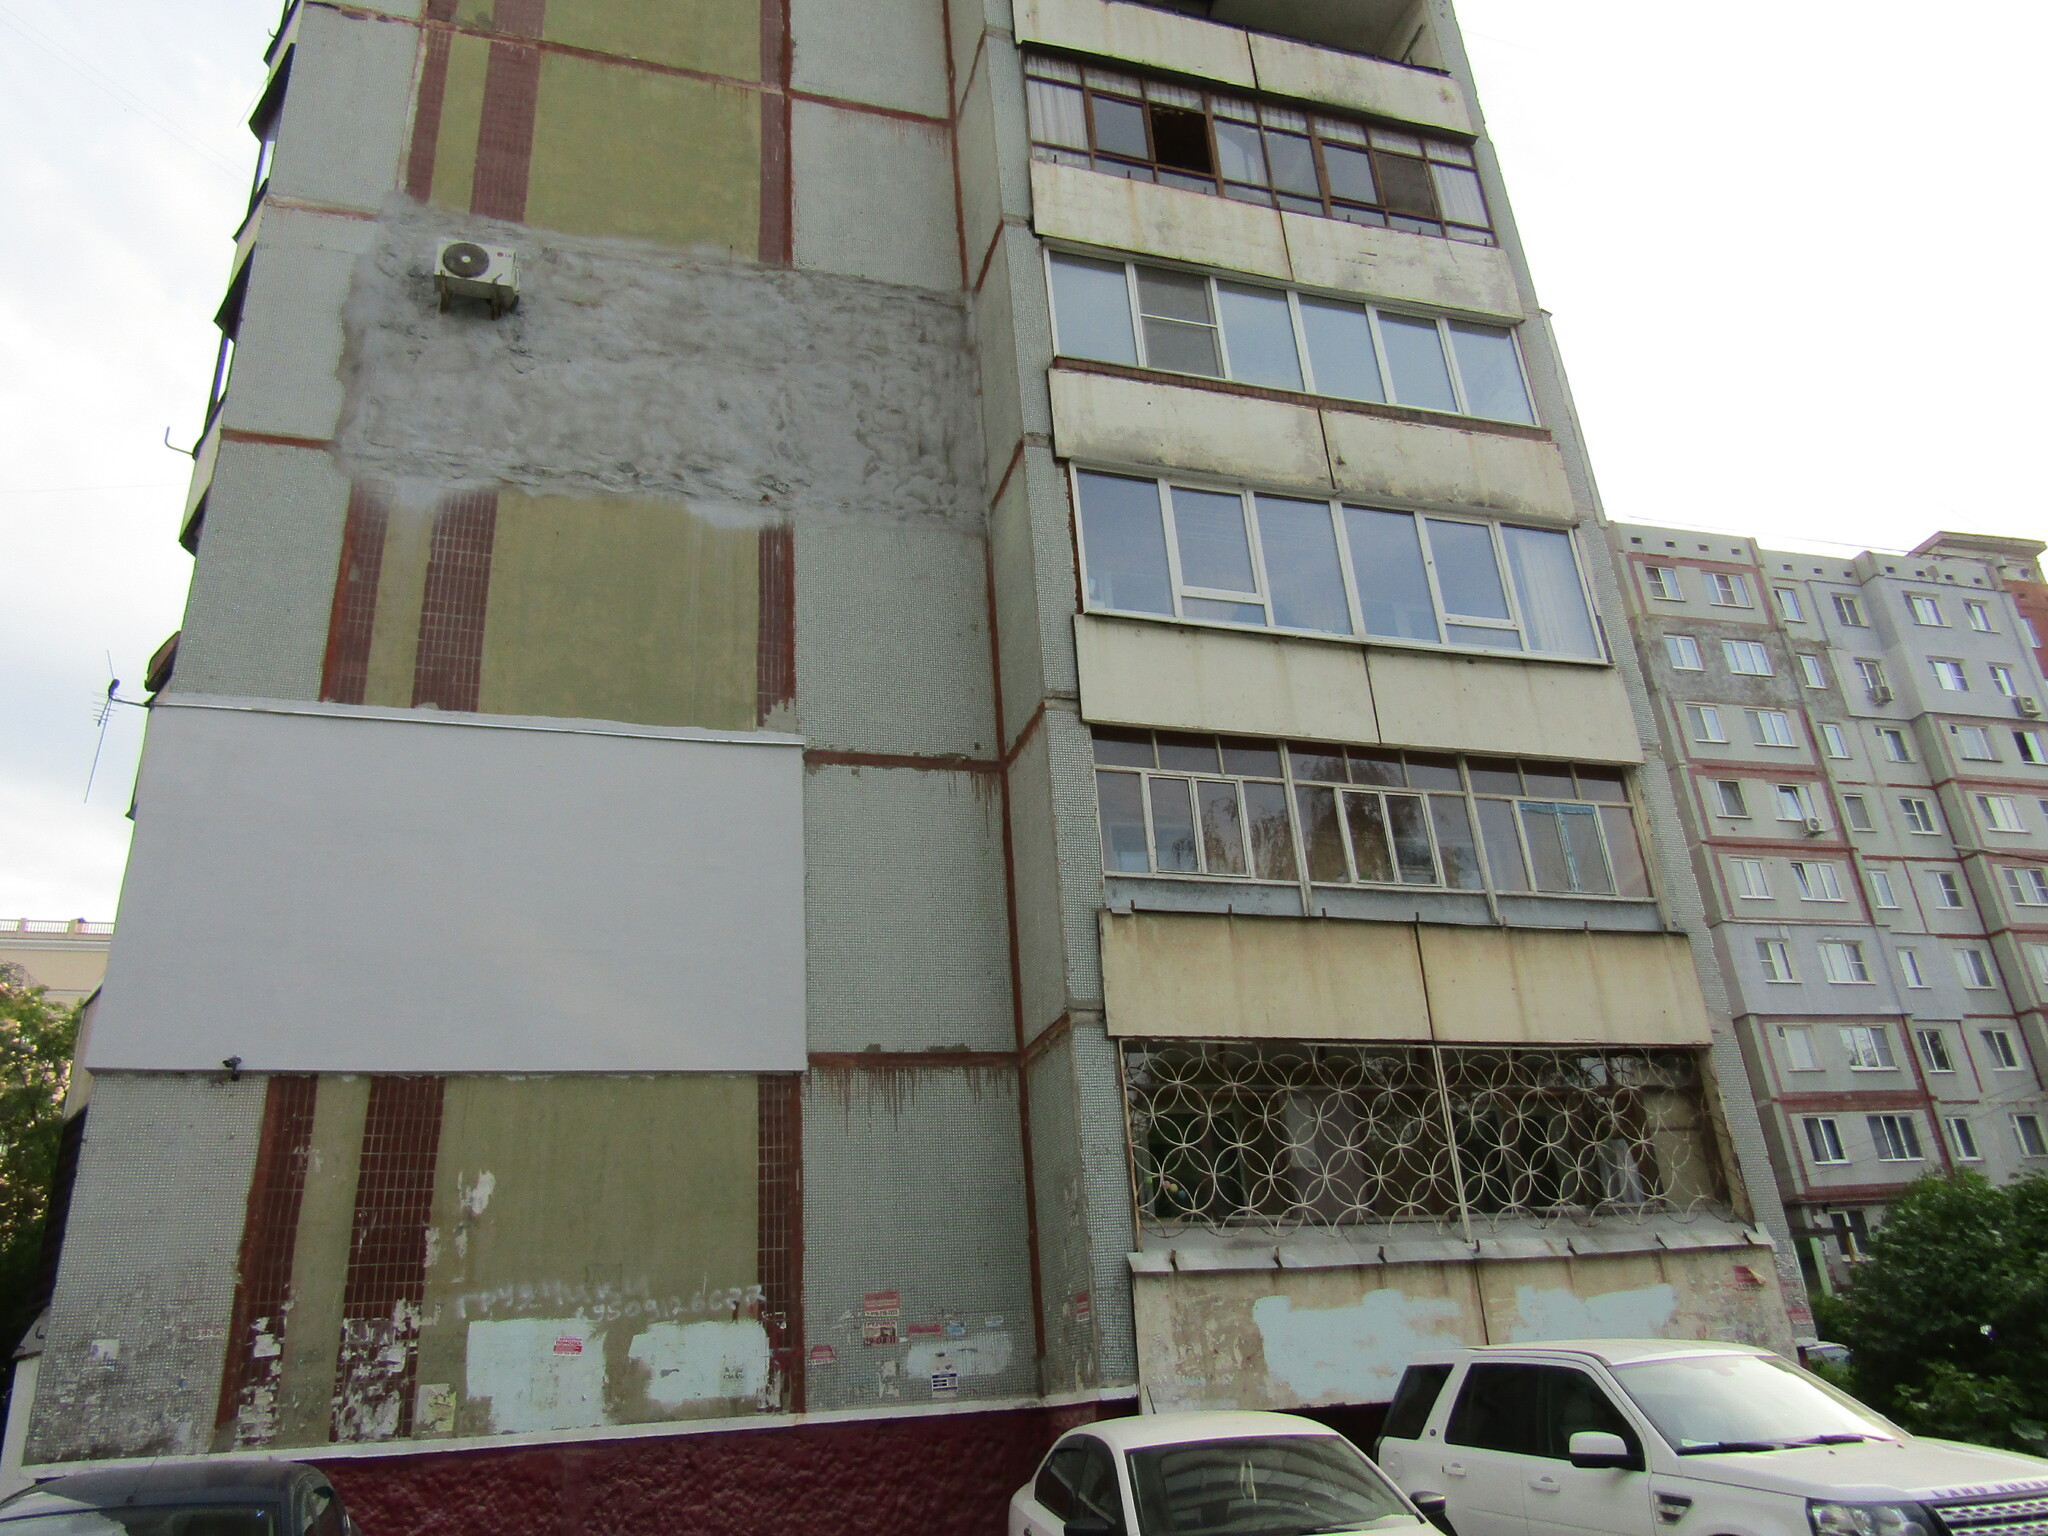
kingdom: Animalia
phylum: Chordata
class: Aves
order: Passeriformes
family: Passeridae
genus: Passer
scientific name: Passer montanus
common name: Eurasian tree sparrow
